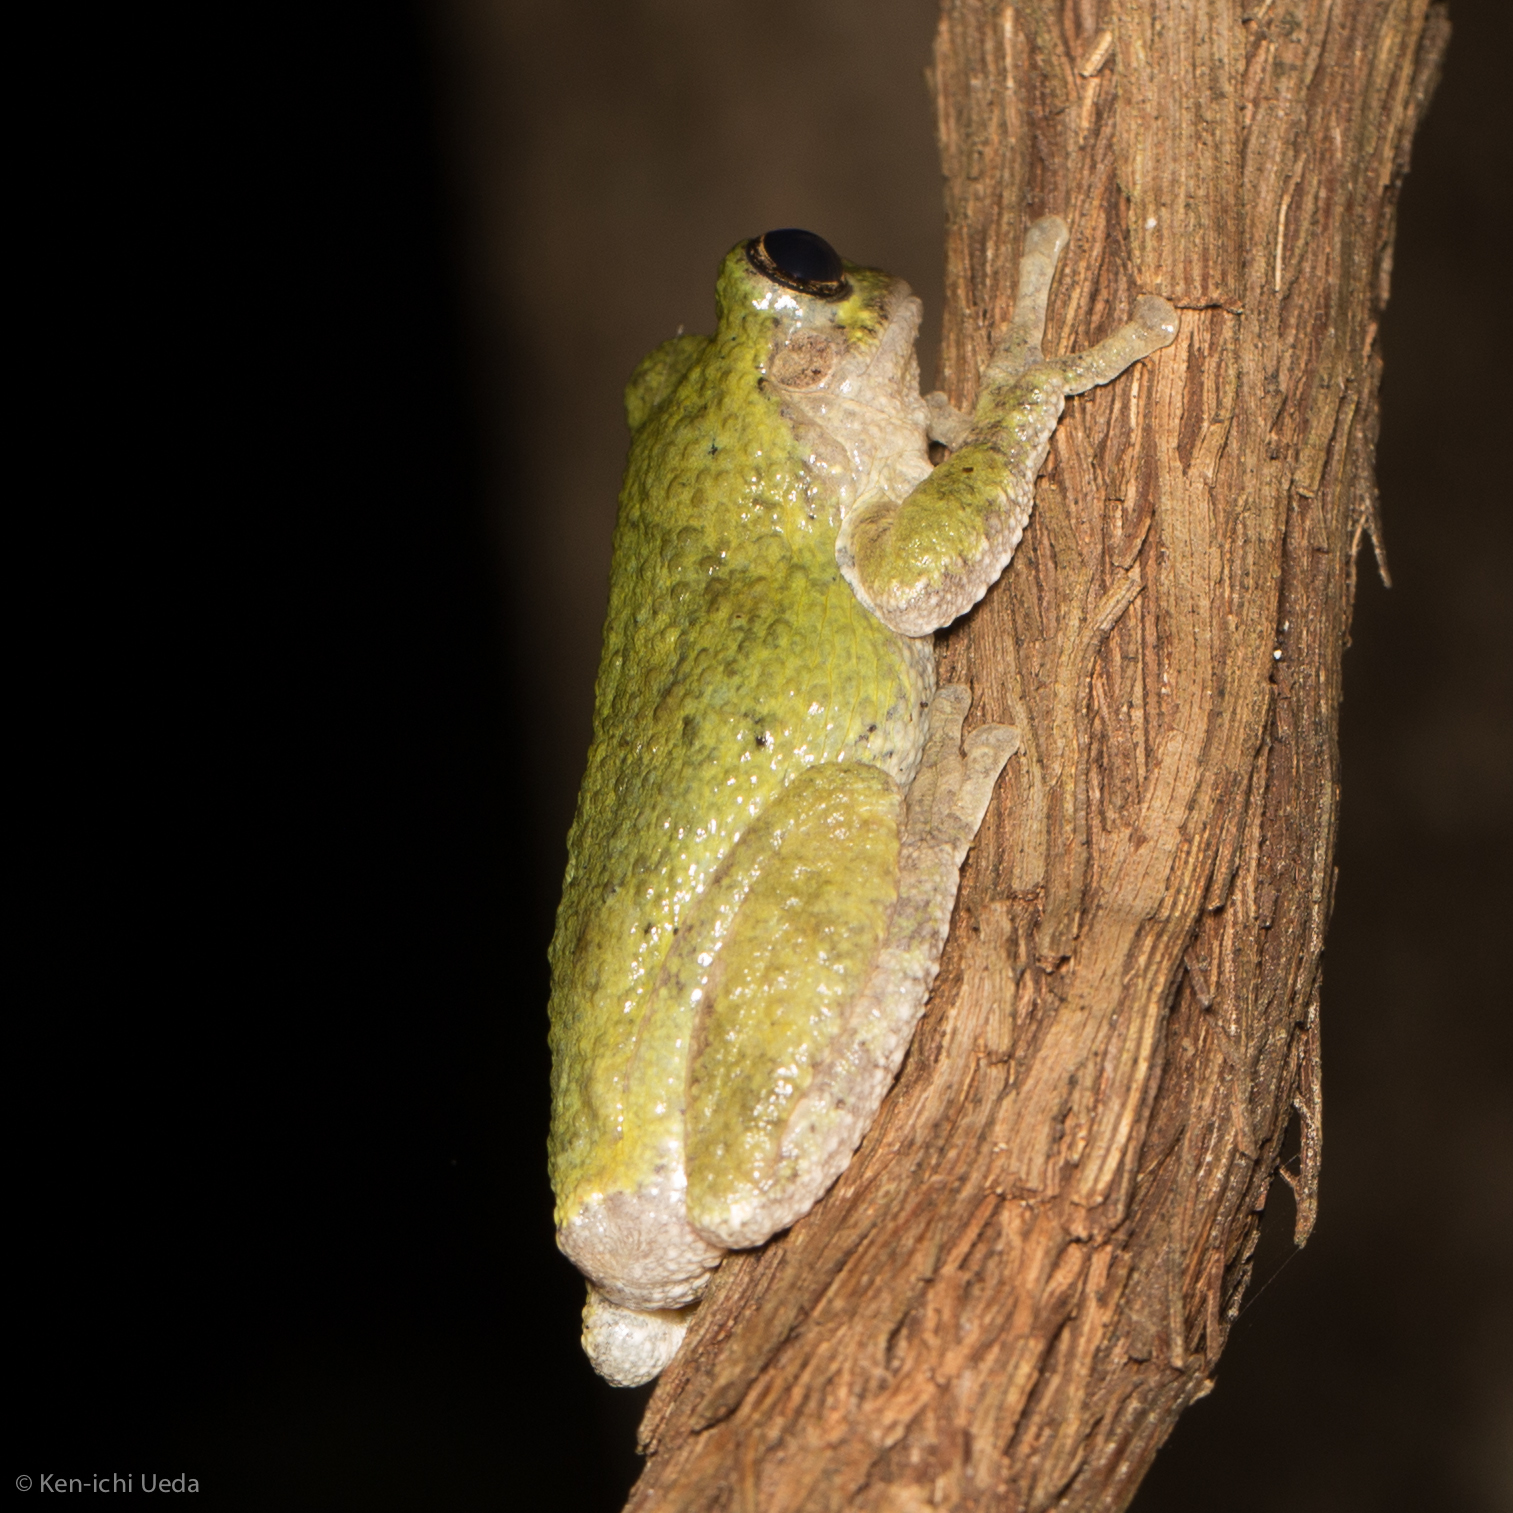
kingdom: Animalia
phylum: Chordata
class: Amphibia
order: Anura
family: Hylidae
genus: Dryophytes
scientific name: Dryophytes chrysoscelis
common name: Cope's gray treefrog
